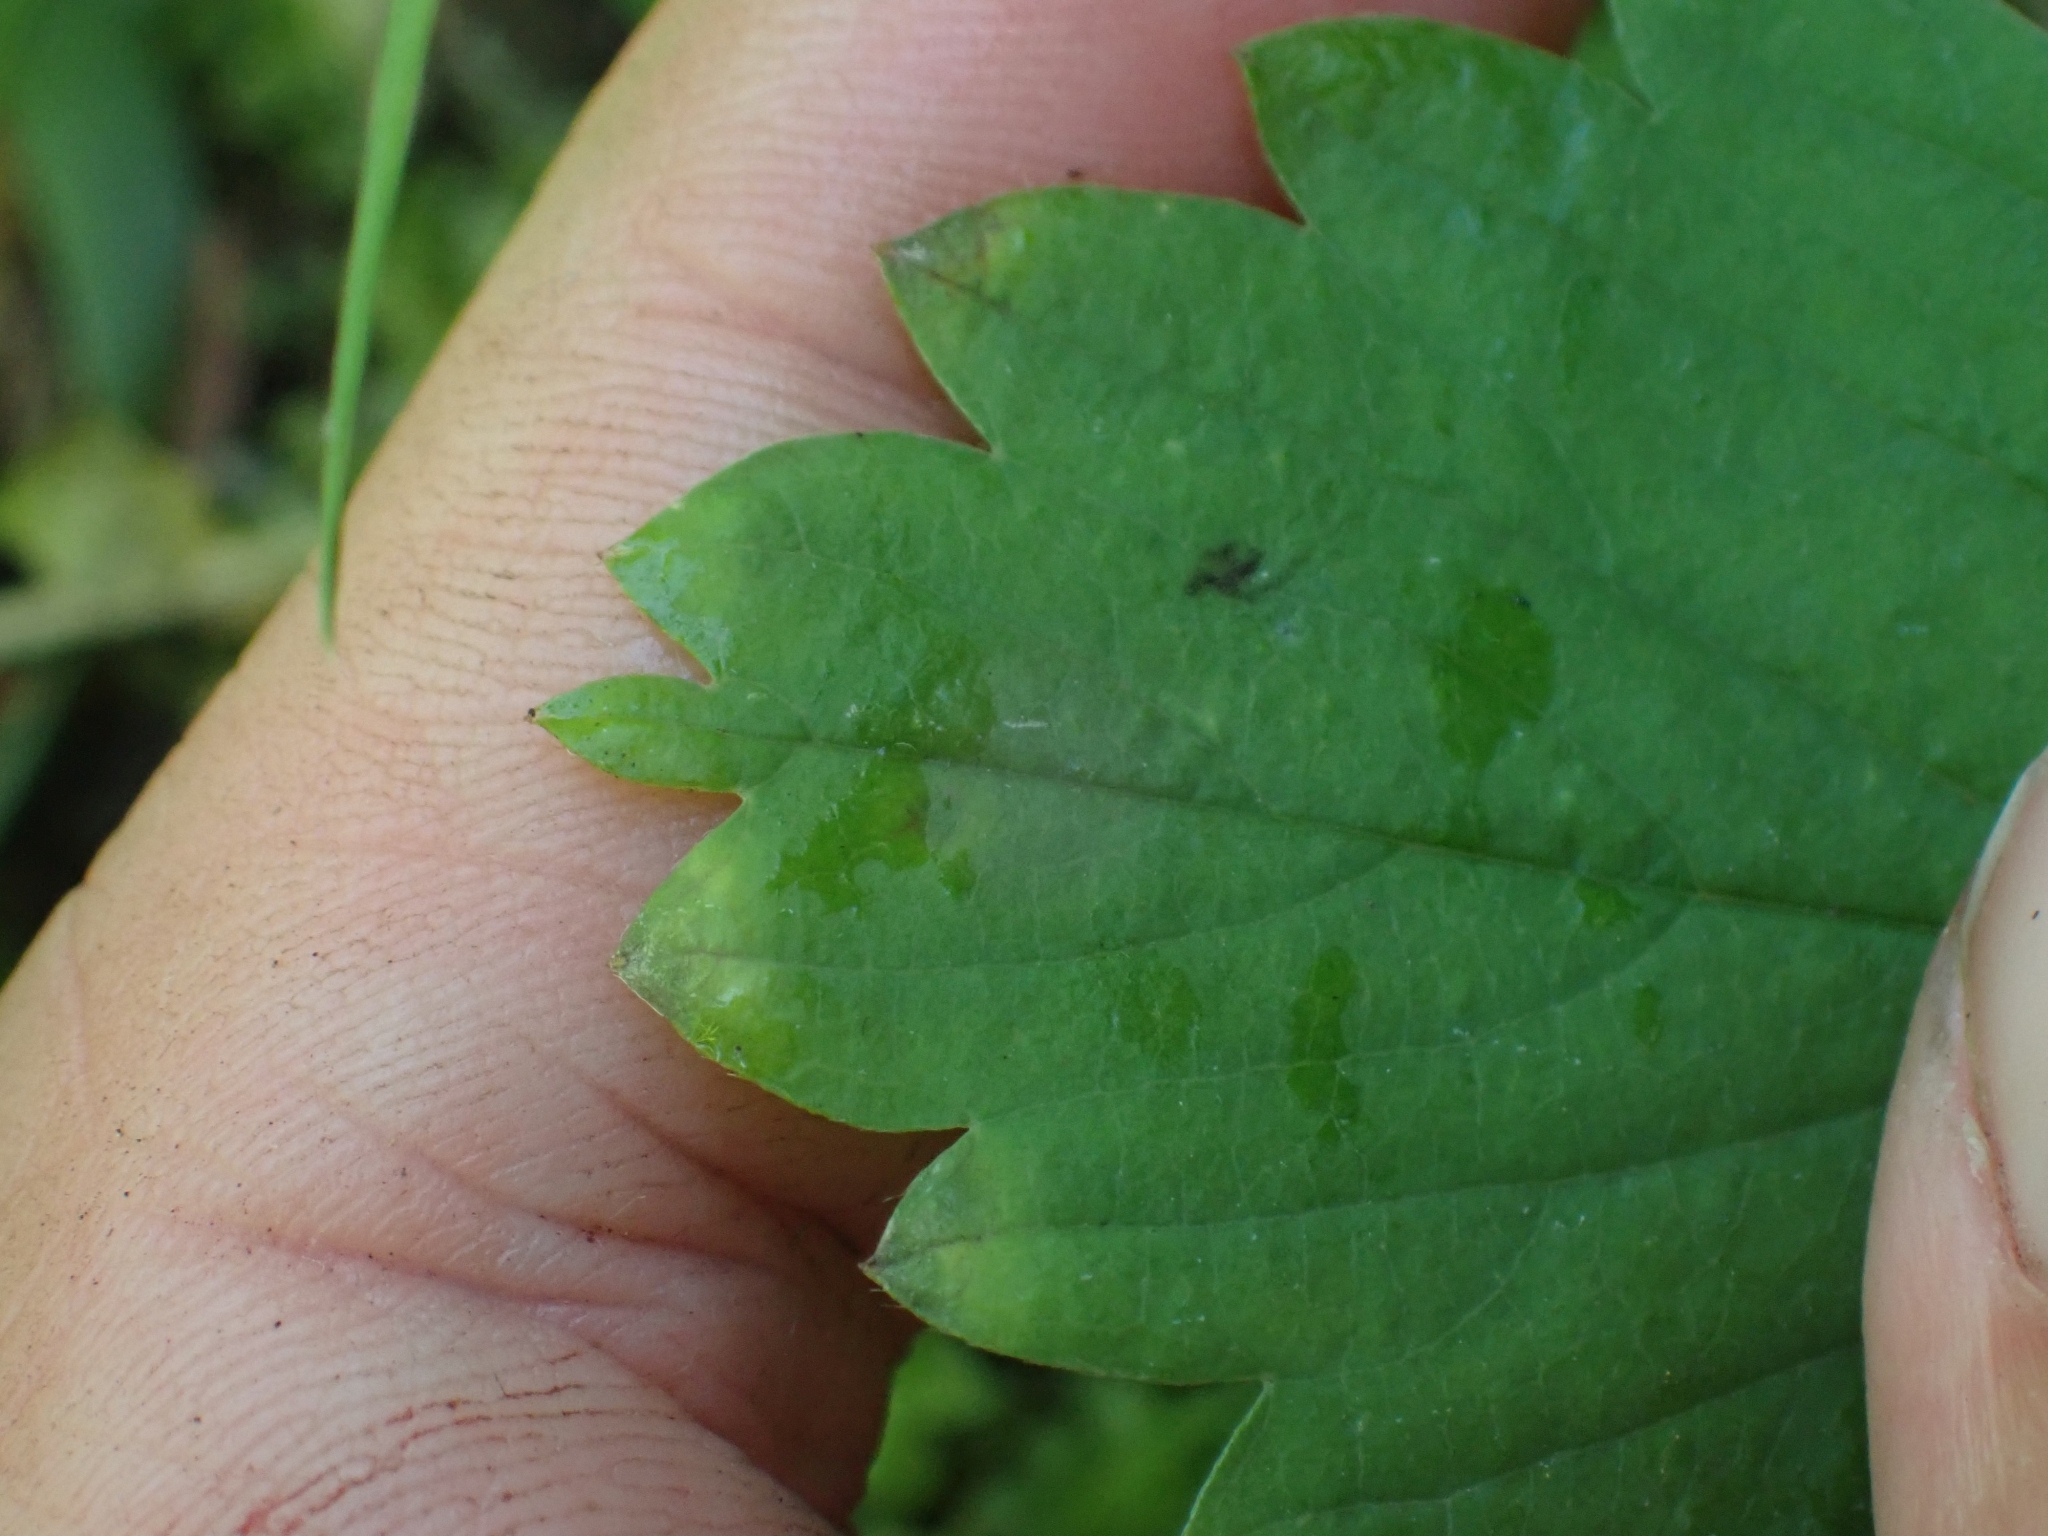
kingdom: Plantae
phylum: Tracheophyta
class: Magnoliopsida
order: Rosales
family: Rosaceae
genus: Fragaria
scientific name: Fragaria virginiana
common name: Thickleaved wild strawberry
